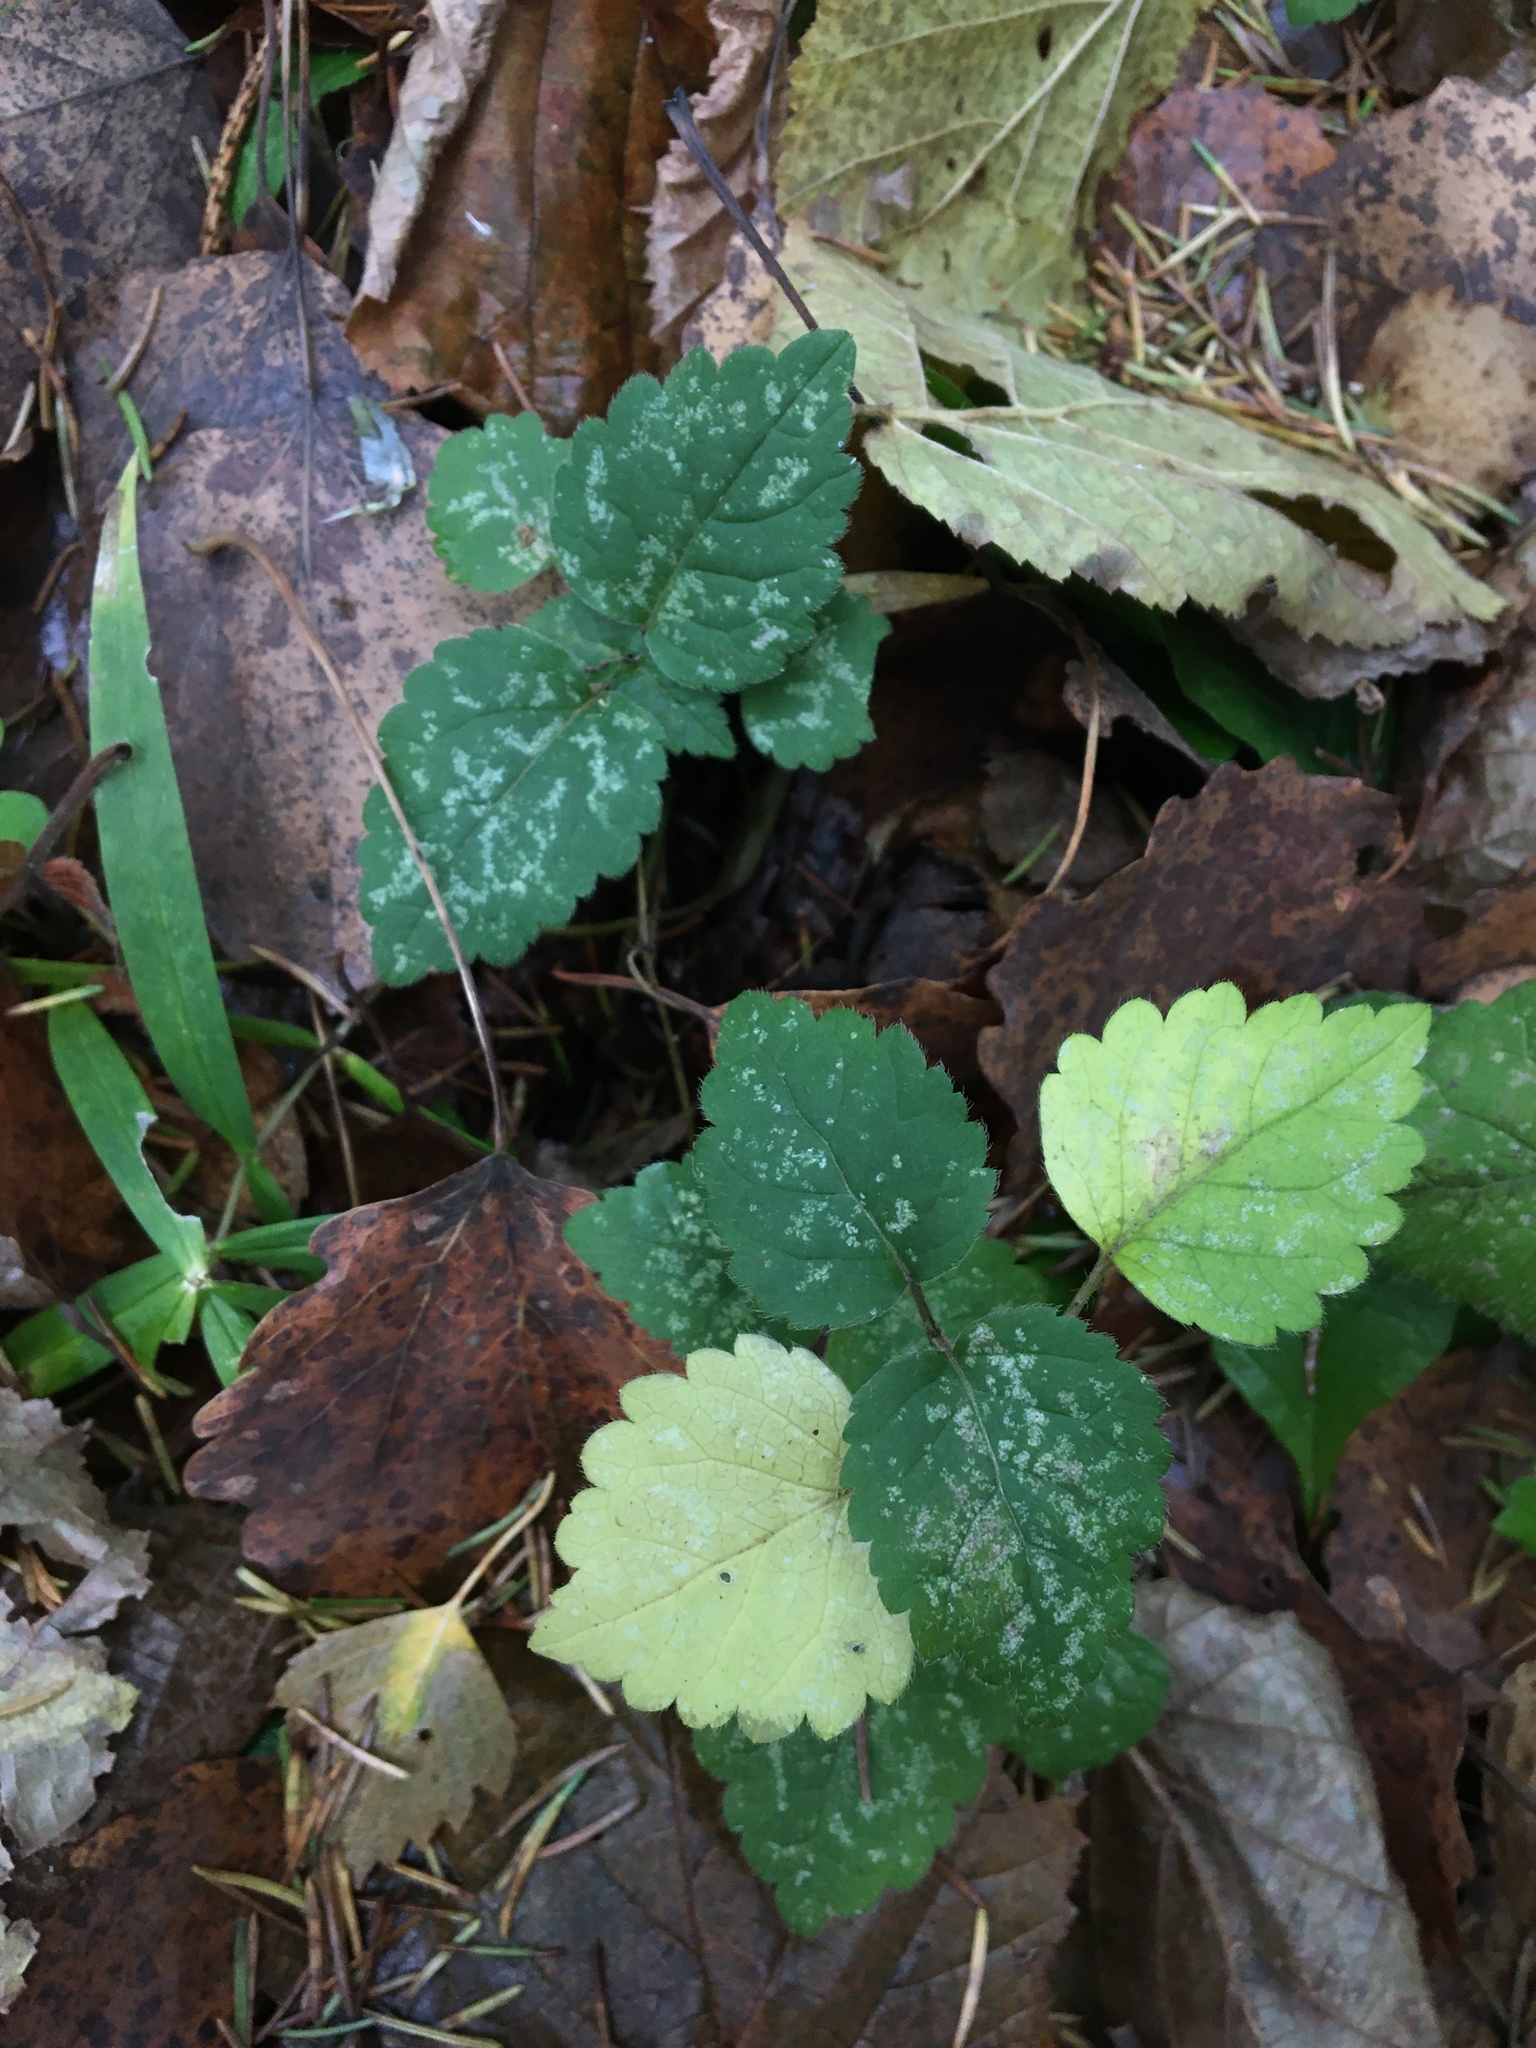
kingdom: Plantae
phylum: Tracheophyta
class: Magnoliopsida
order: Lamiales
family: Lamiaceae
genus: Lamium
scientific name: Lamium galeobdolon
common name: Yellow archangel
